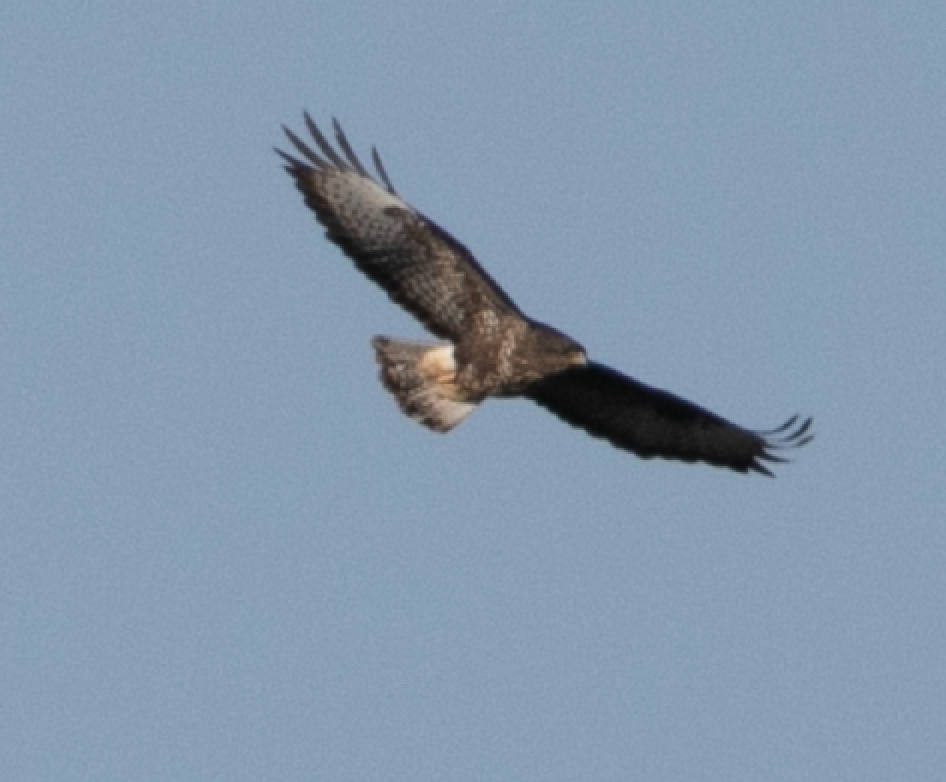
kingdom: Animalia
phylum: Chordata
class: Aves
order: Accipitriformes
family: Accipitridae
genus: Buteo
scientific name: Buteo buteo
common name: Common buzzard
